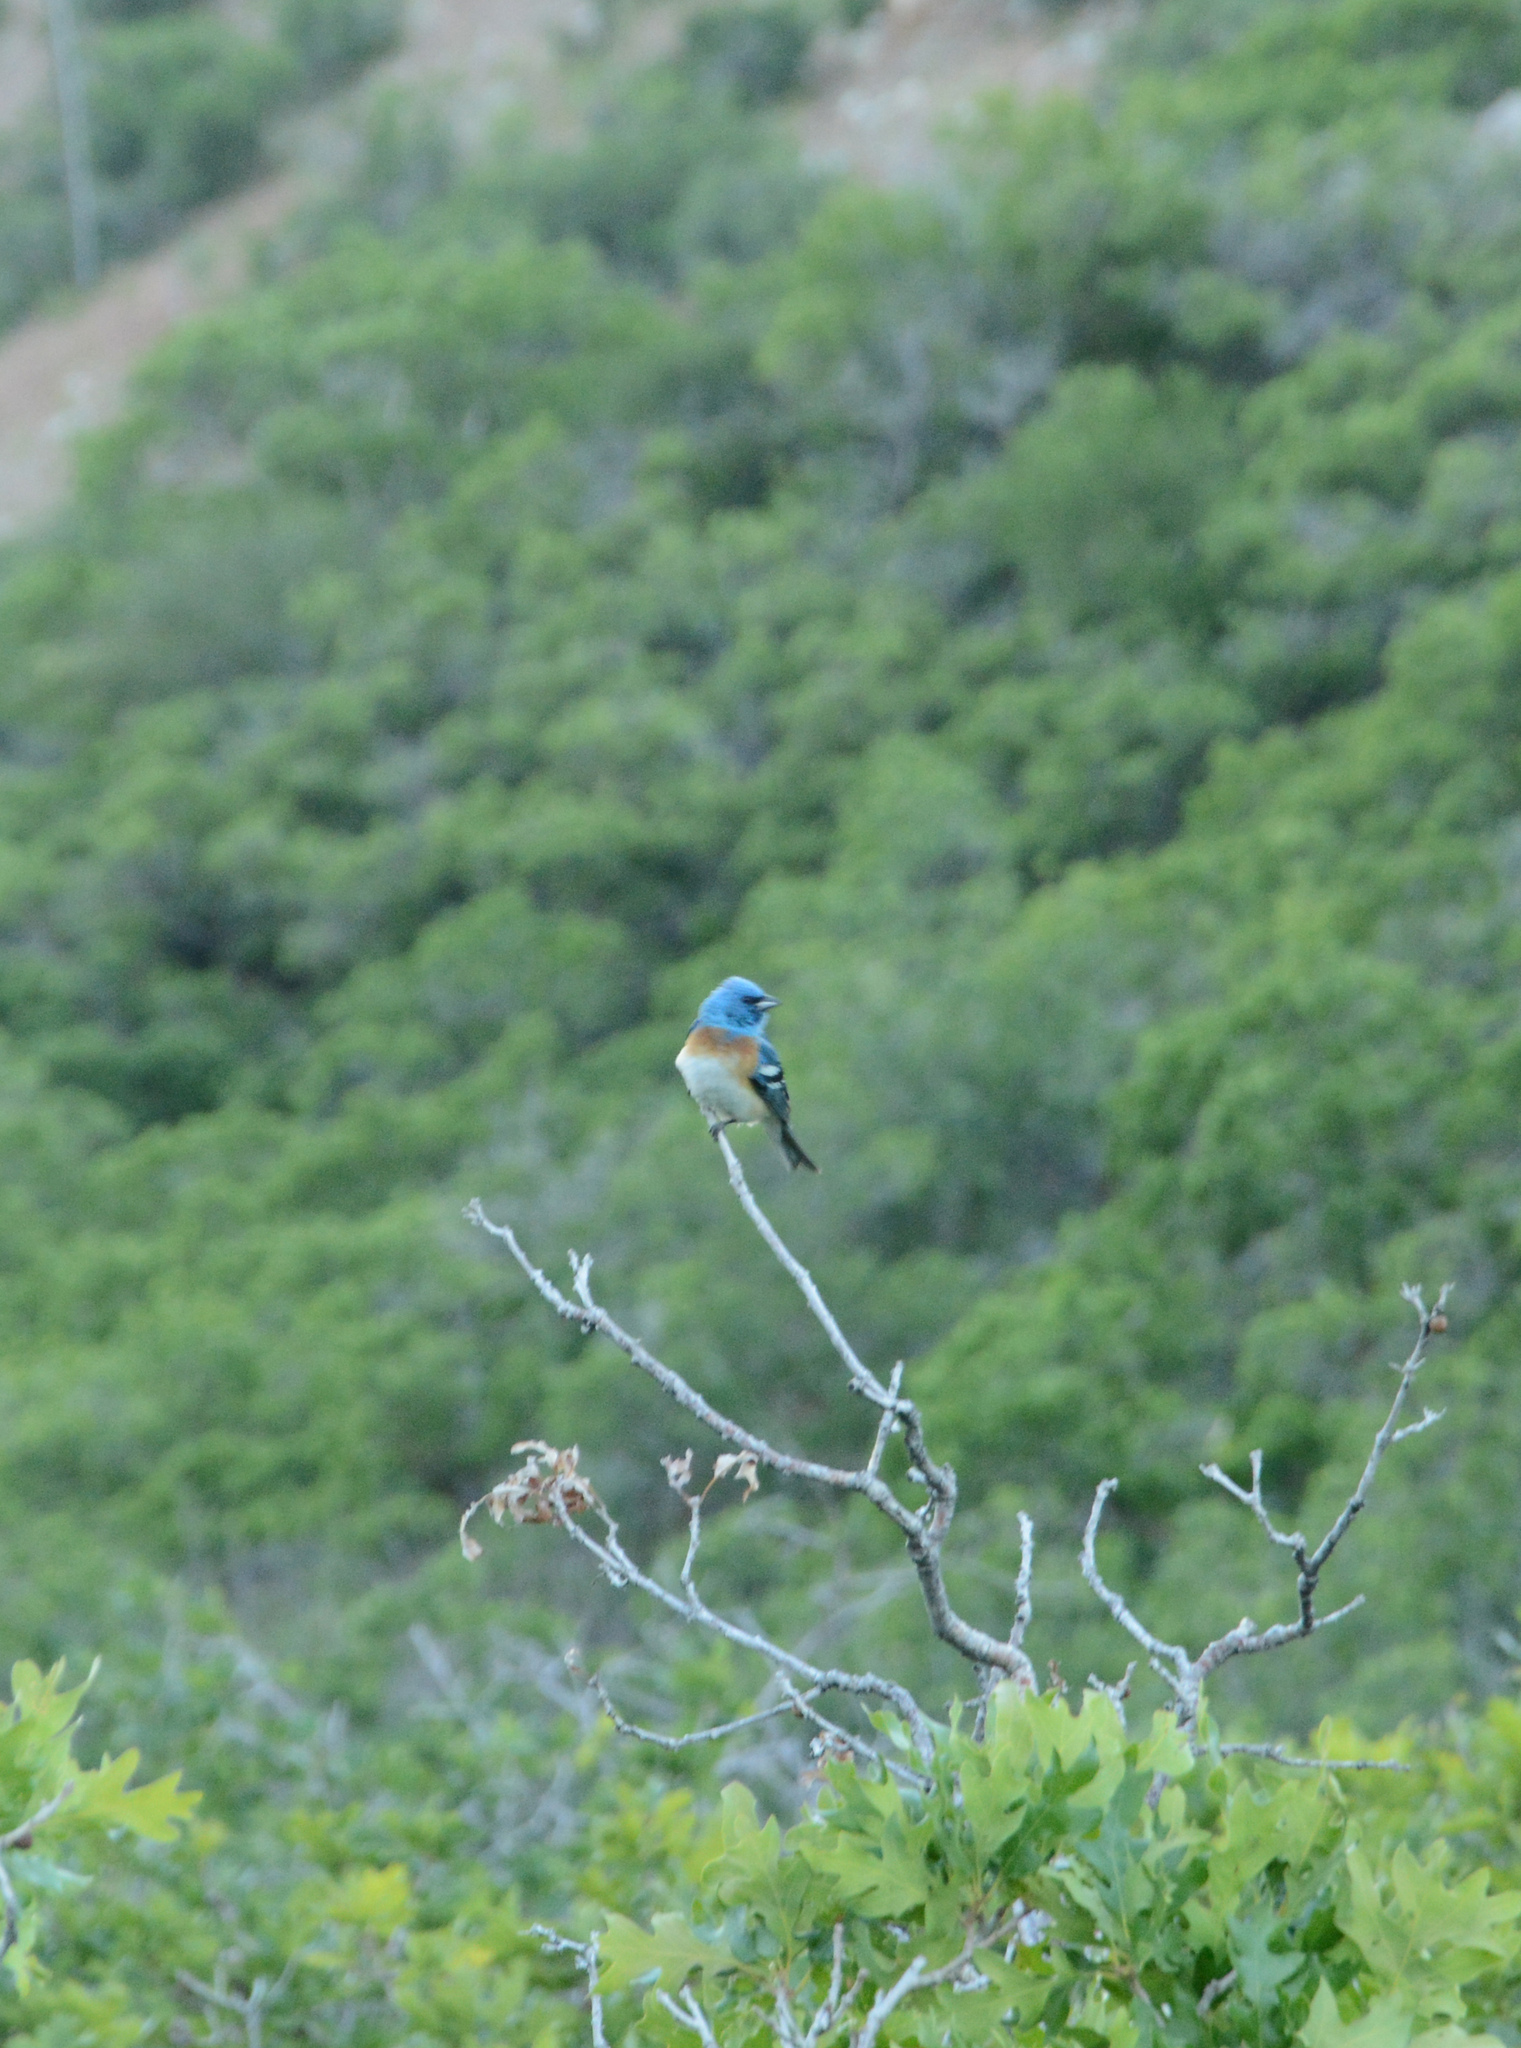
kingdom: Animalia
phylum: Chordata
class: Aves
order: Passeriformes
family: Cardinalidae
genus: Passerina
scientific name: Passerina amoena
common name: Lazuli bunting
